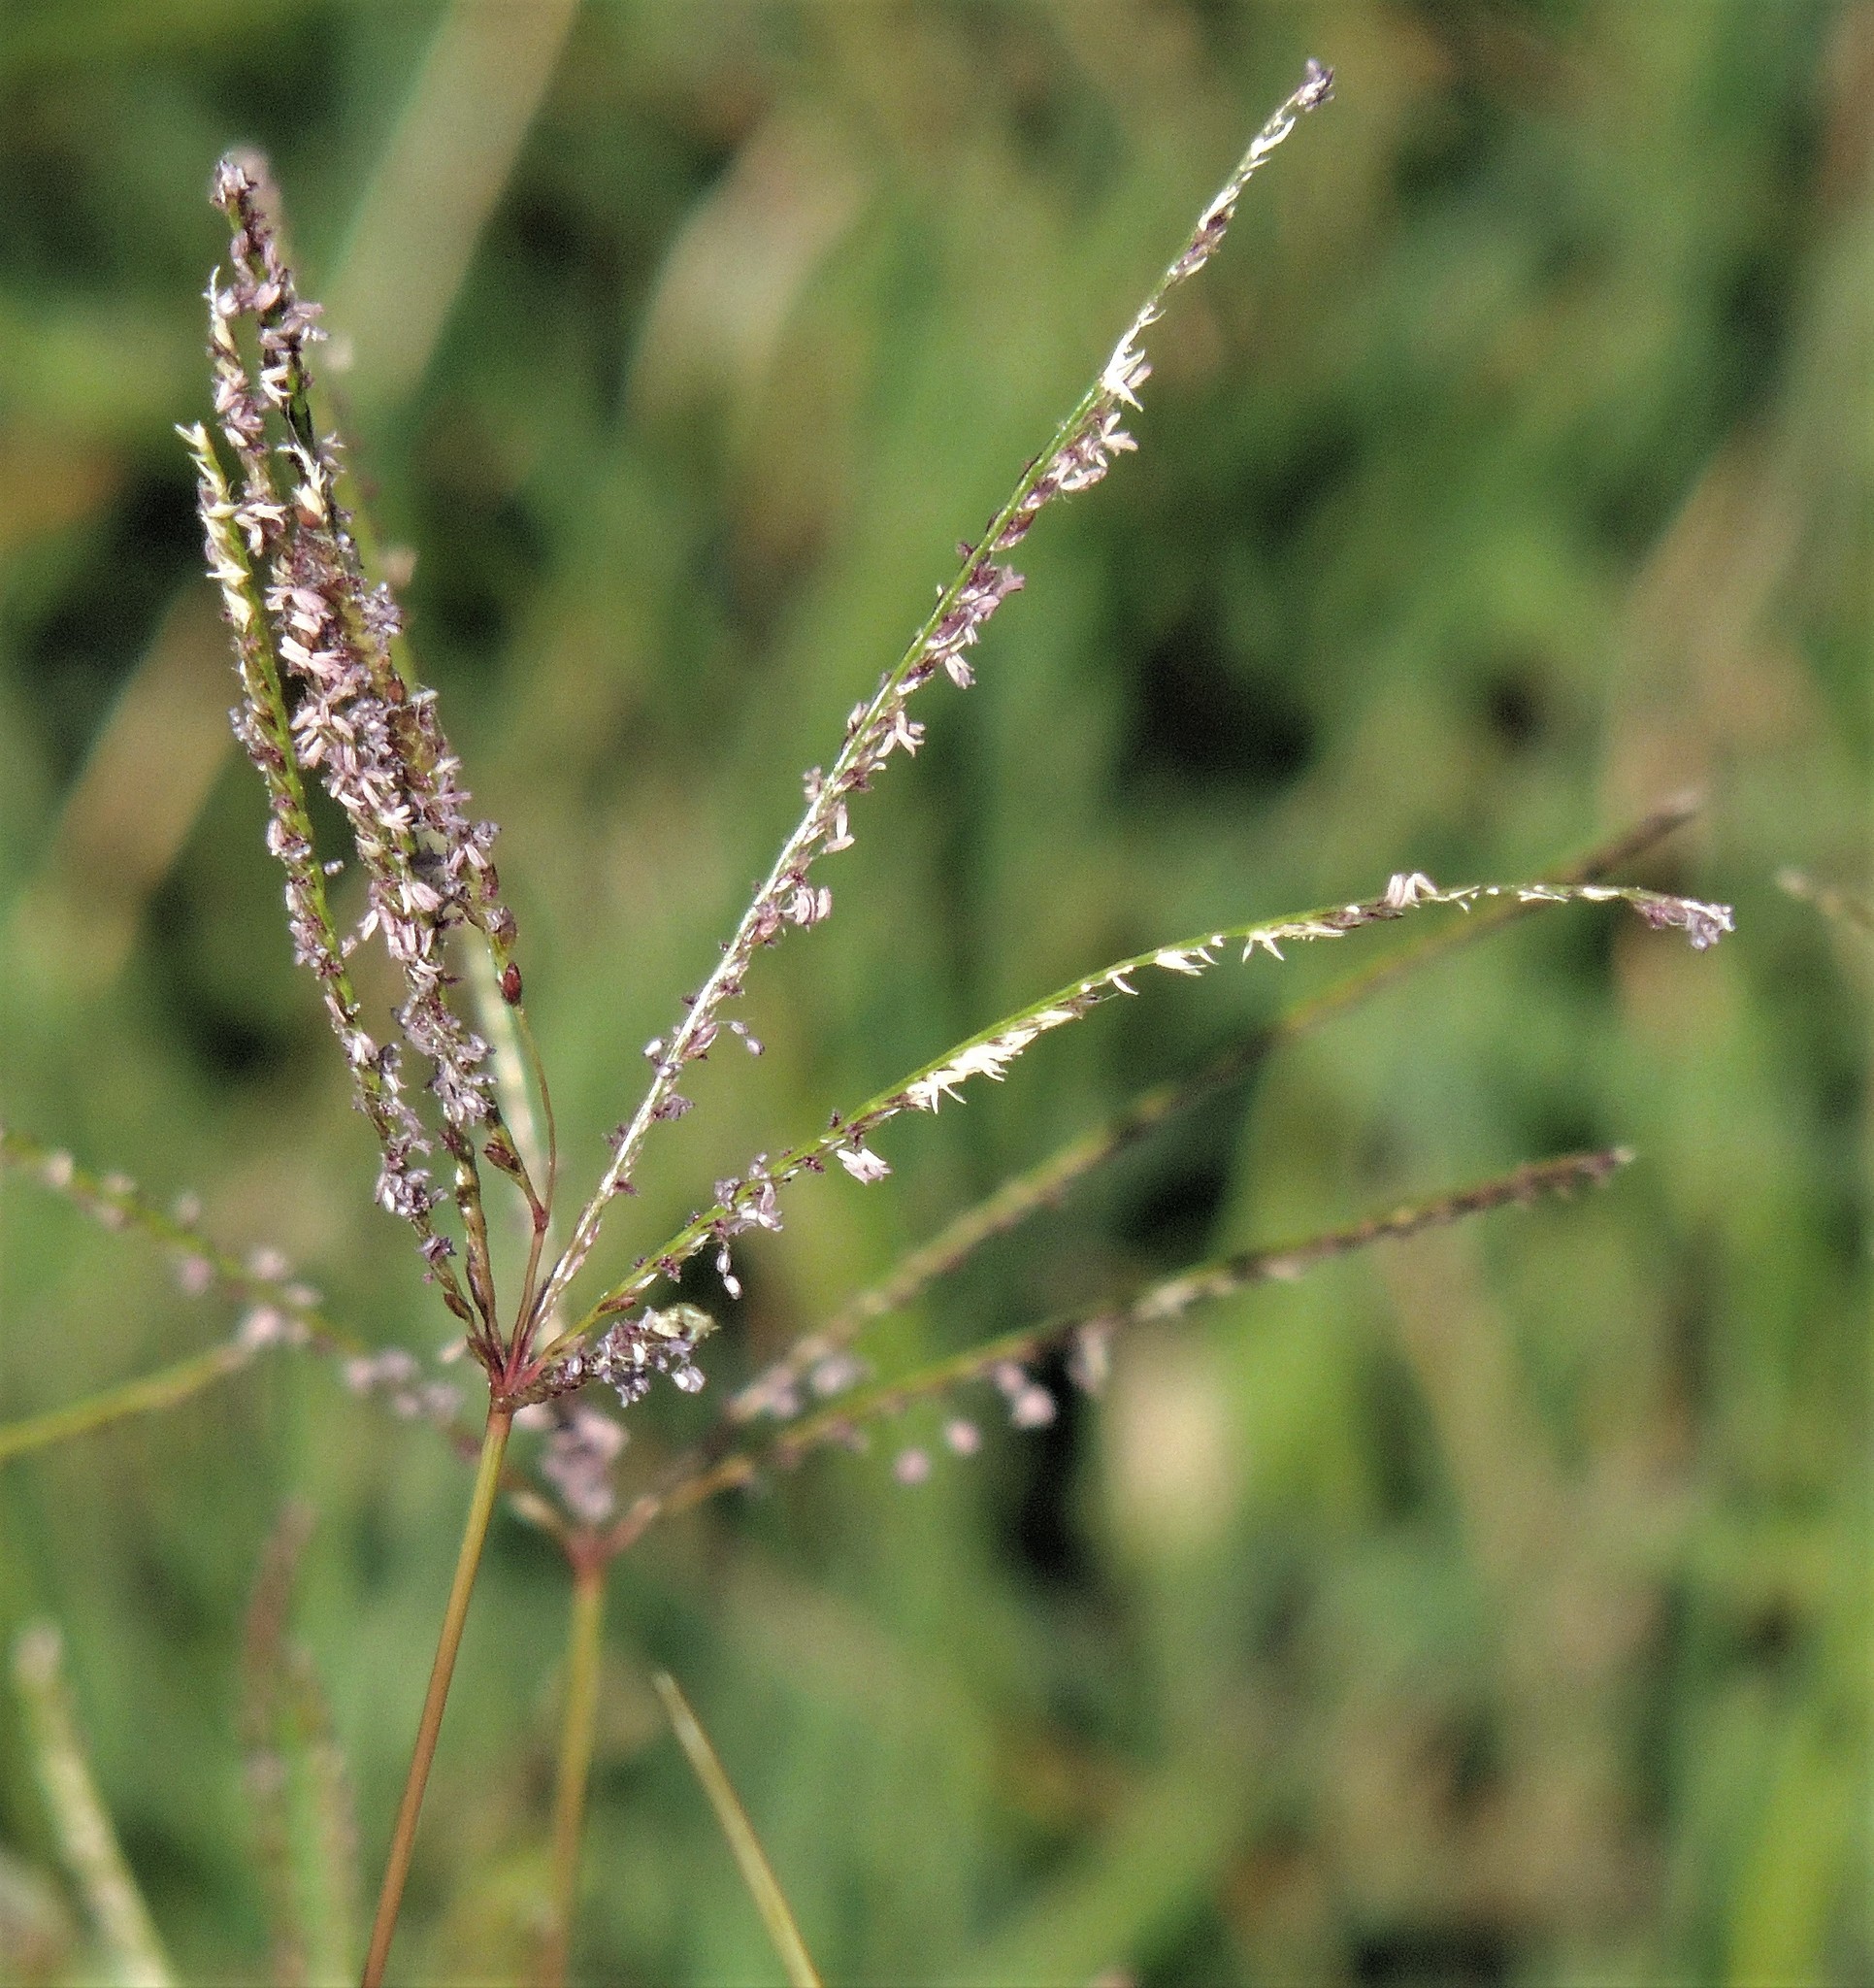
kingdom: Plantae
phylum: Tracheophyta
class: Liliopsida
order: Poales
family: Poaceae
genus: Cynodon
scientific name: Cynodon dactylon
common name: Bermuda grass
